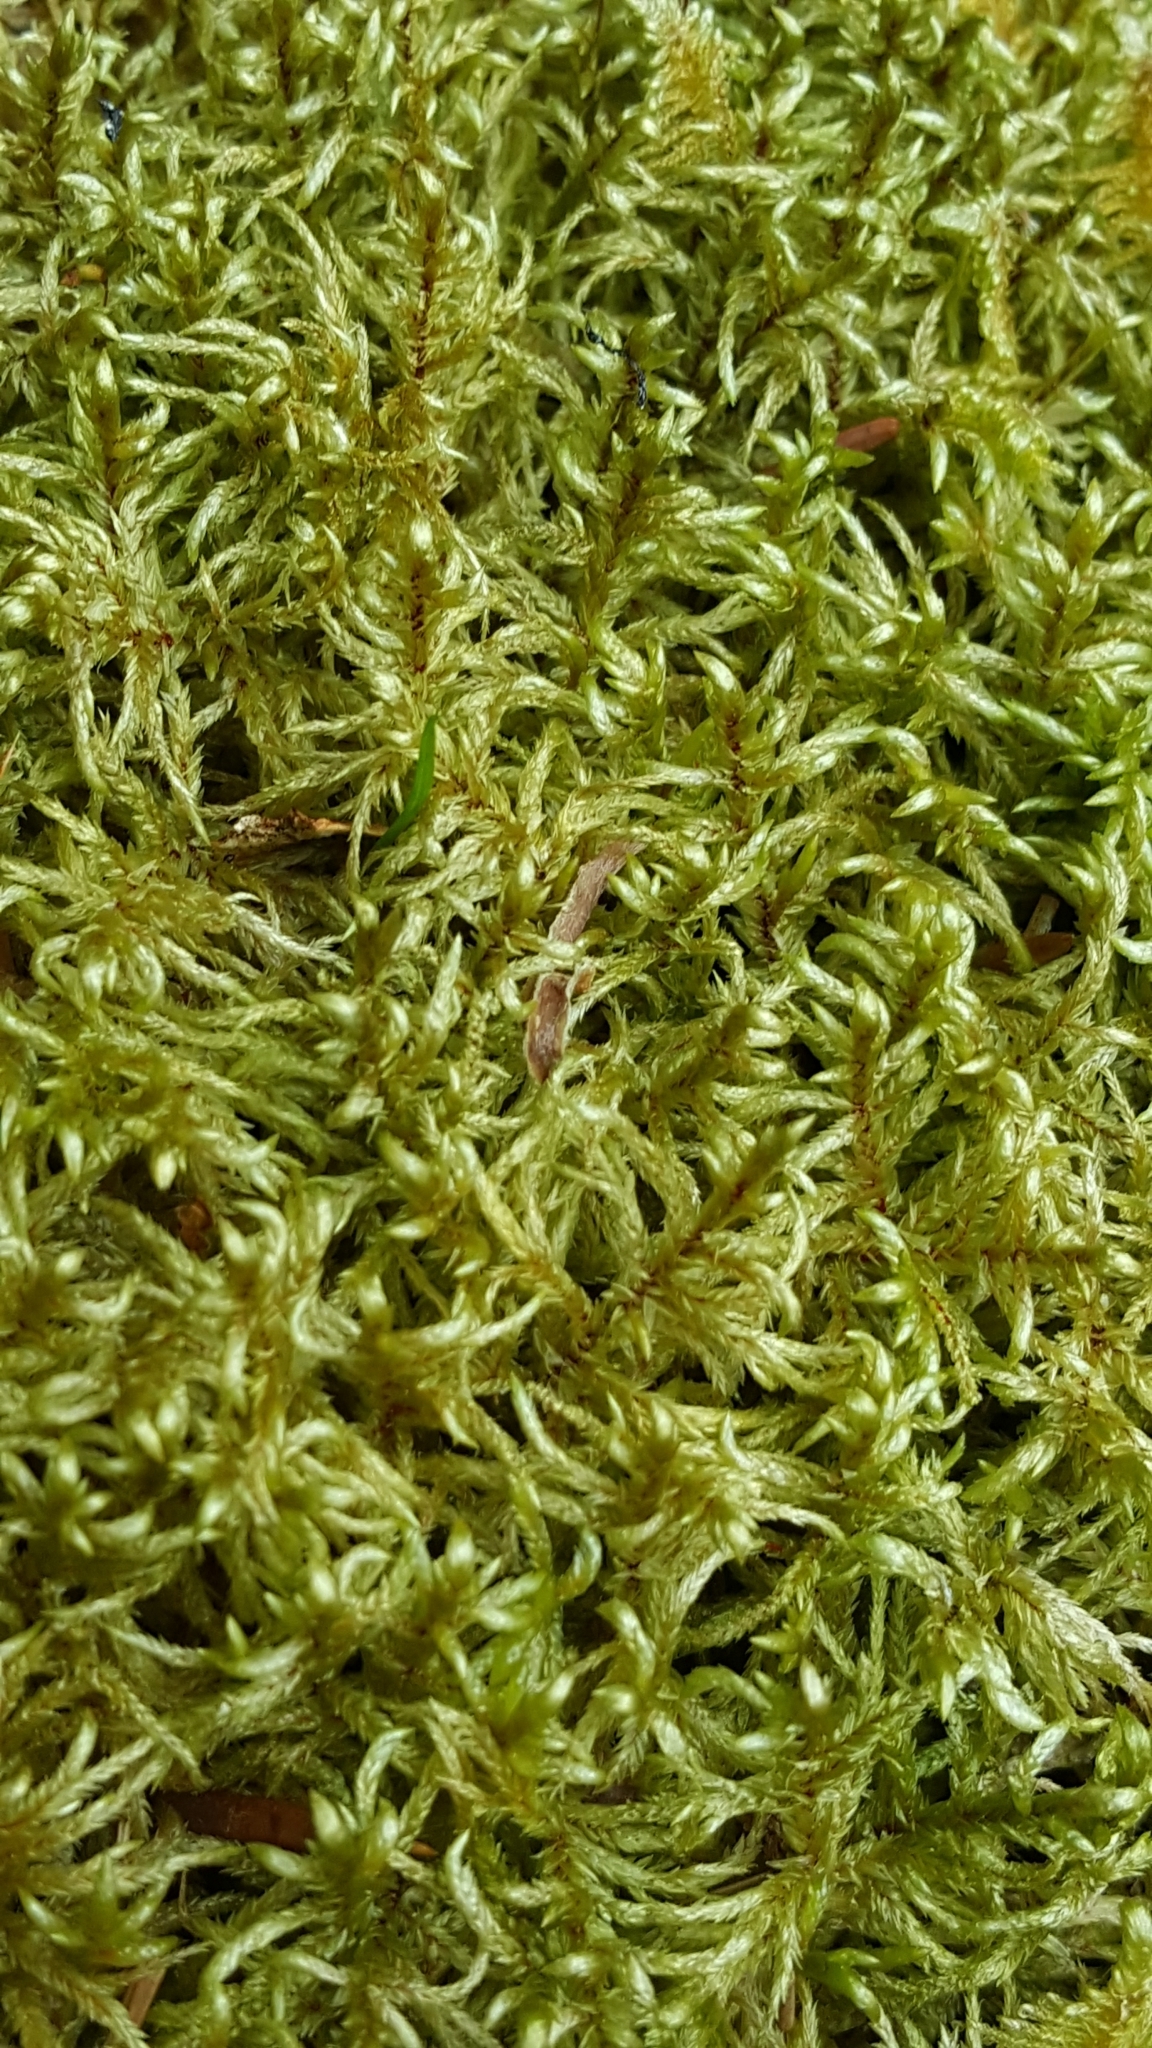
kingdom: Plantae
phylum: Bryophyta
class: Bryopsida
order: Hypnales
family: Hylocomiaceae
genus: Pleurozium
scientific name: Pleurozium schreberi
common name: Red-stemmed feather moss
